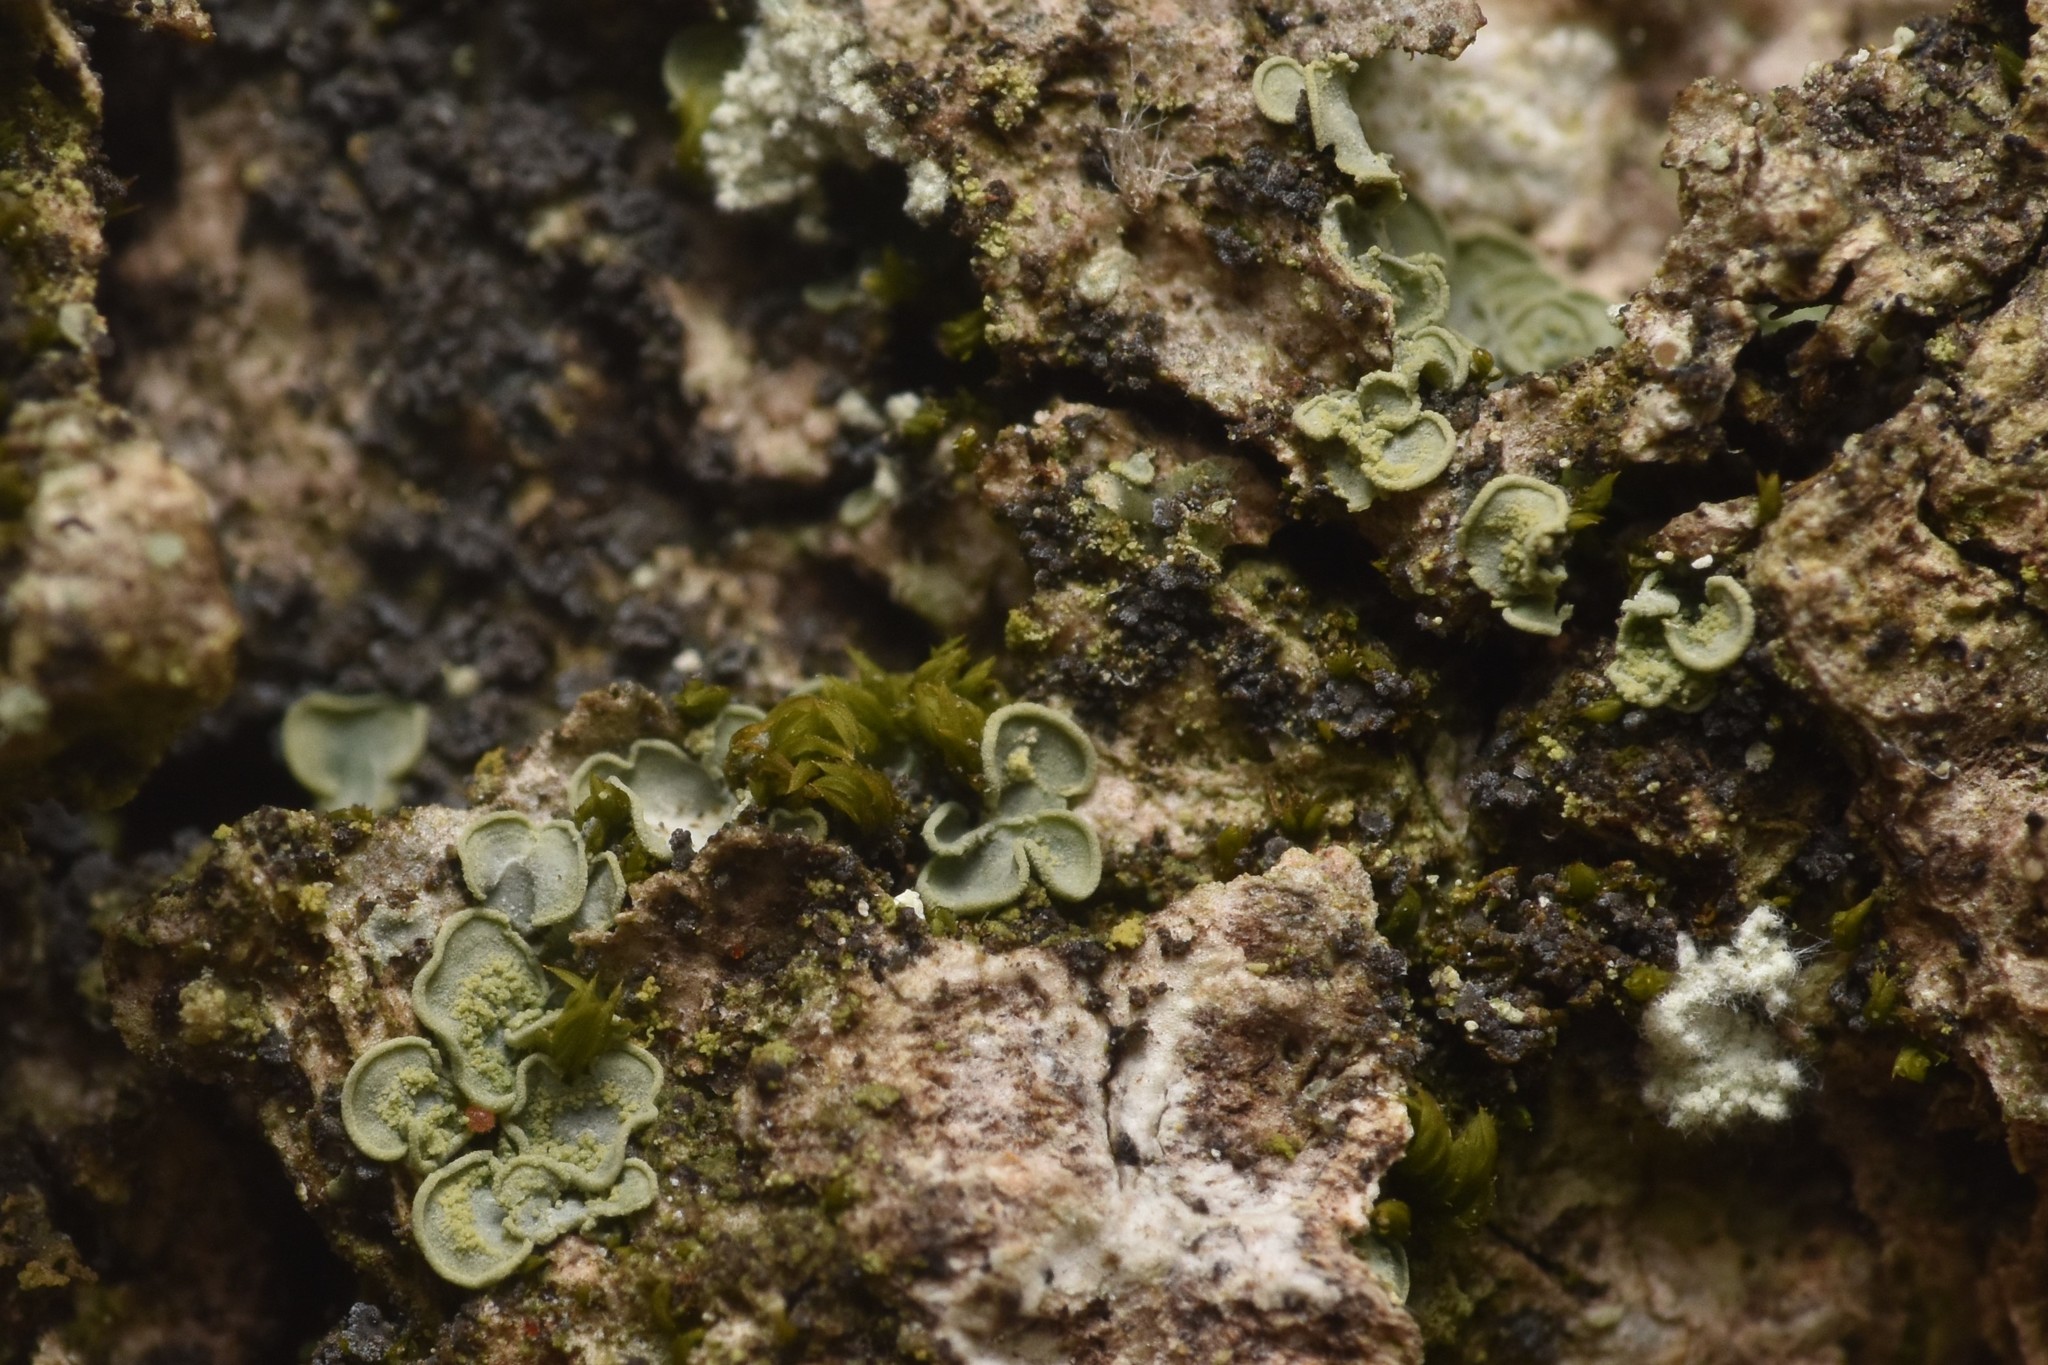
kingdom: Fungi
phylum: Ascomycota
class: Eurotiomycetes
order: Verrucariales
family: Verrucariaceae
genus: Normandina
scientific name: Normandina pulchella
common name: Elf ears lichen
